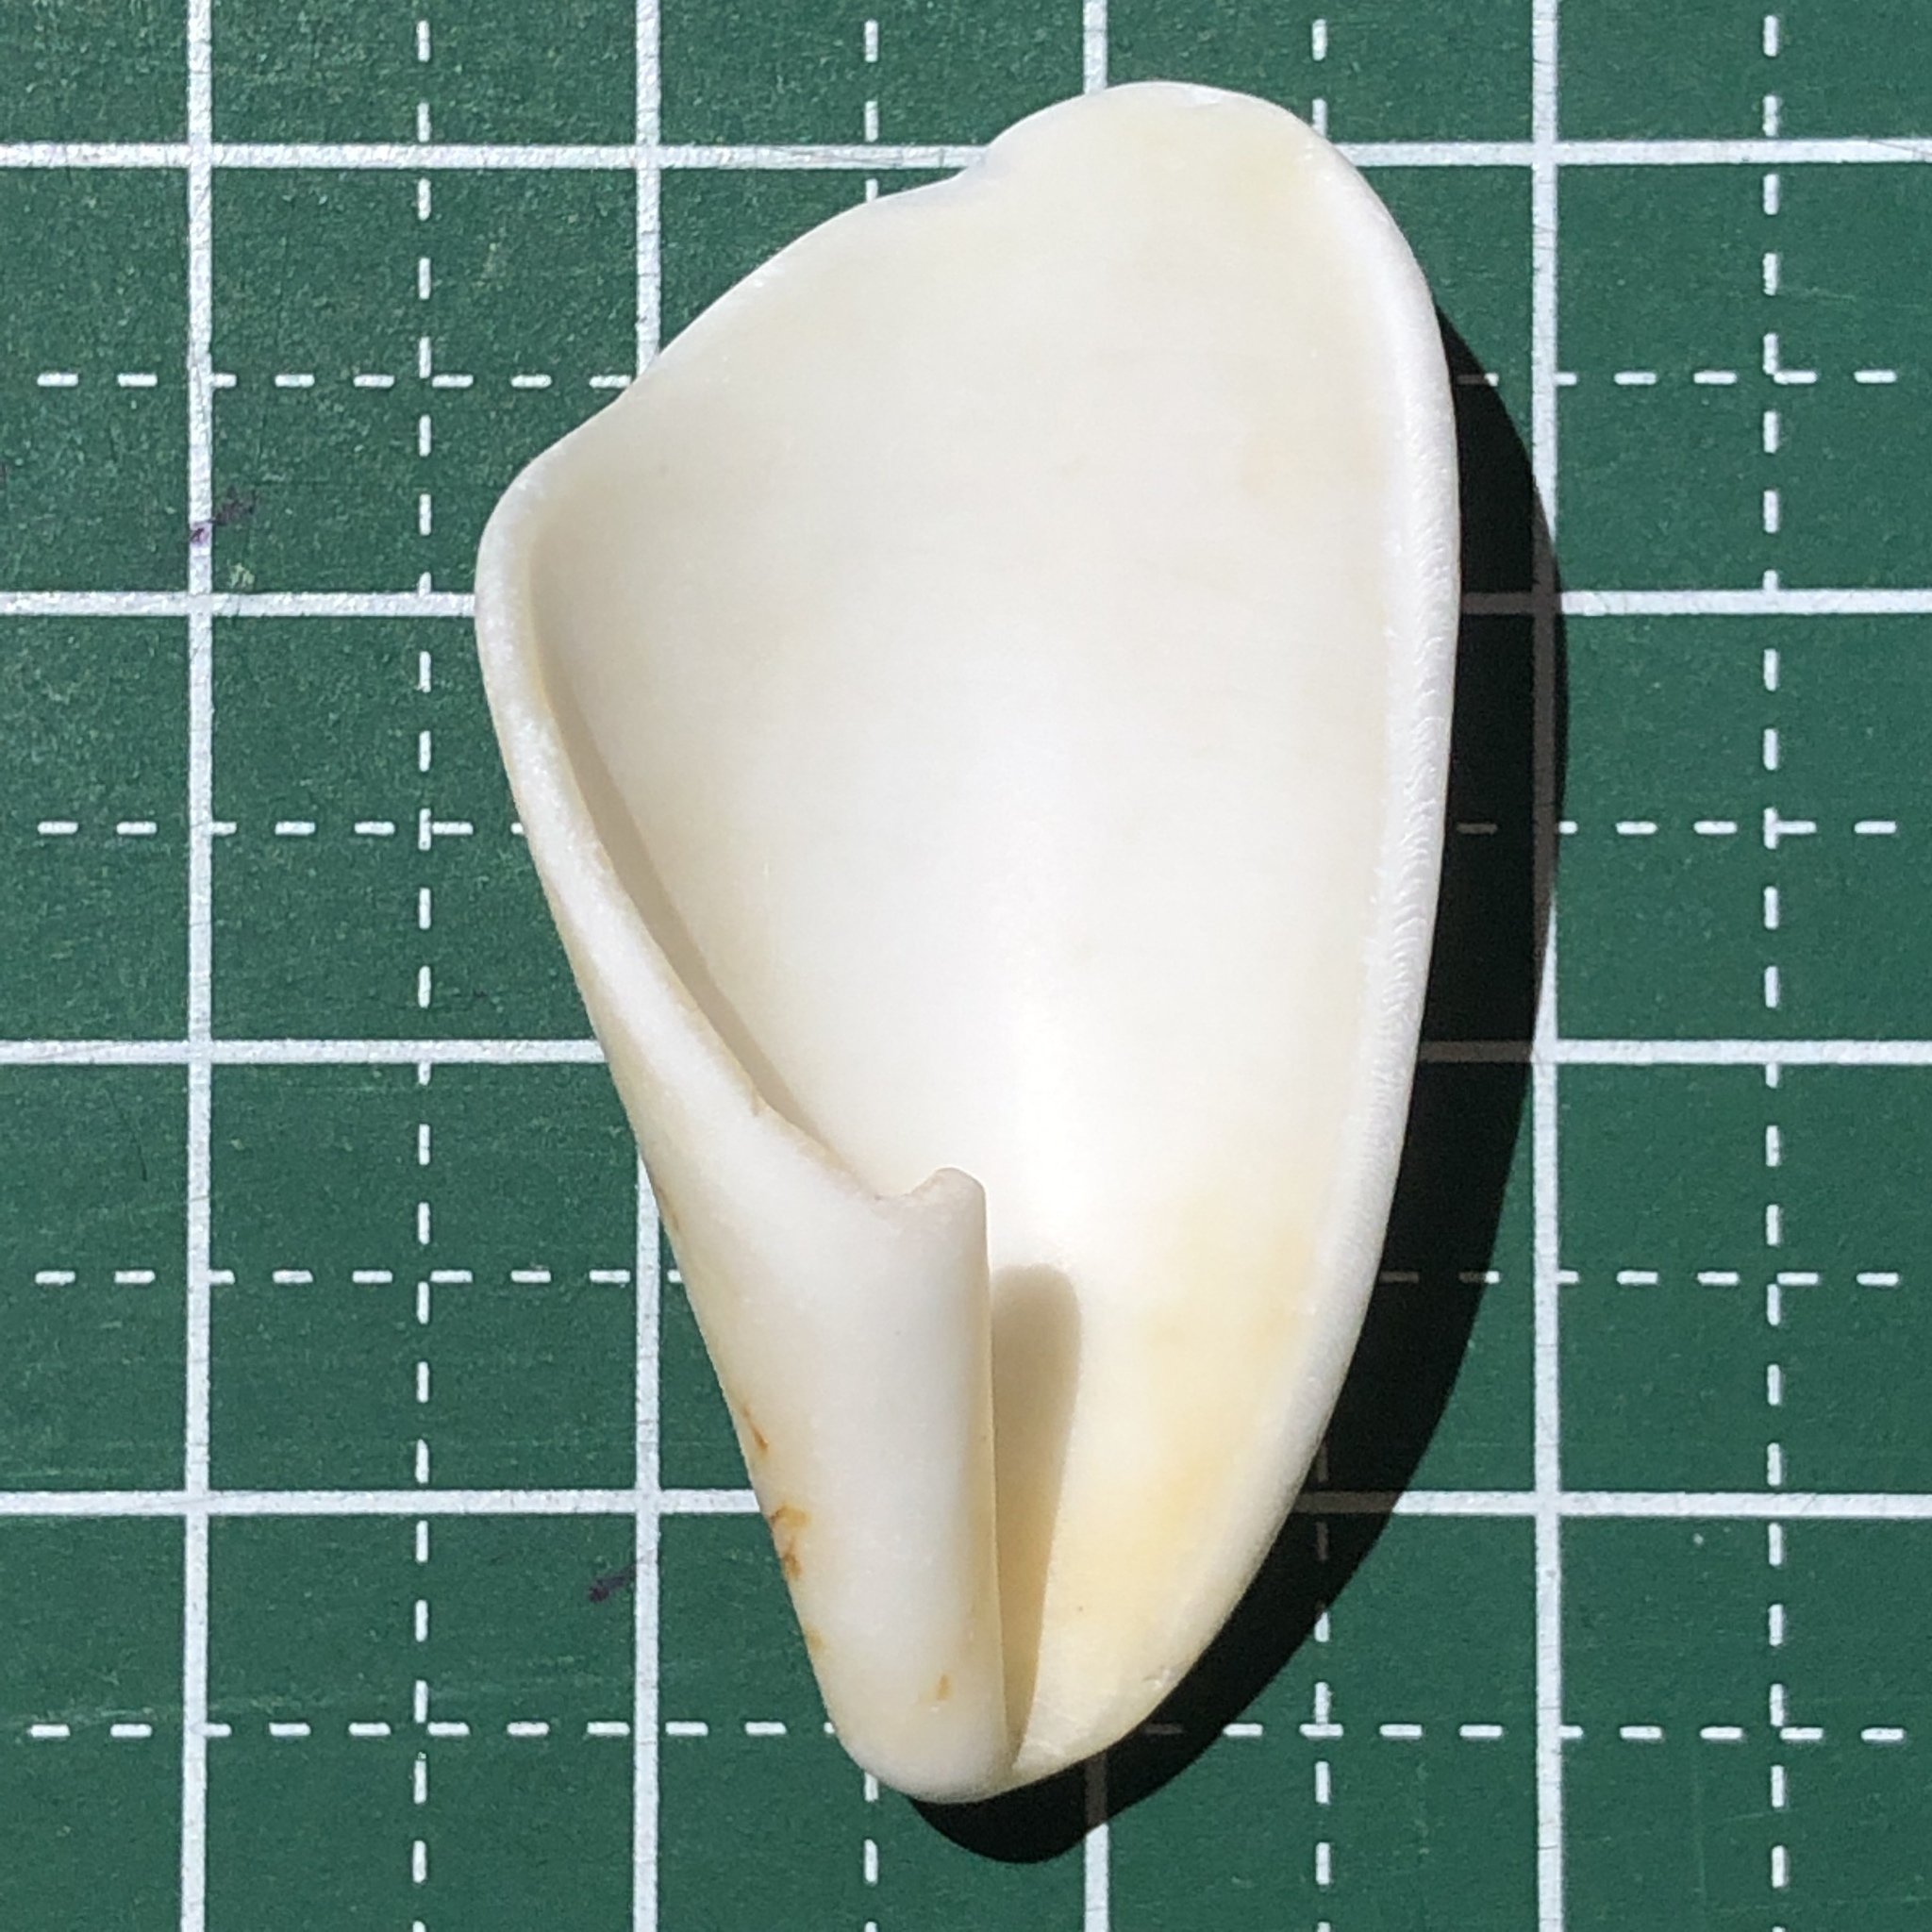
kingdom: Animalia
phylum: Mollusca
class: Gastropoda
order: Neogastropoda
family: Conidae
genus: Conus
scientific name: Conus aulicus
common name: Court cone
